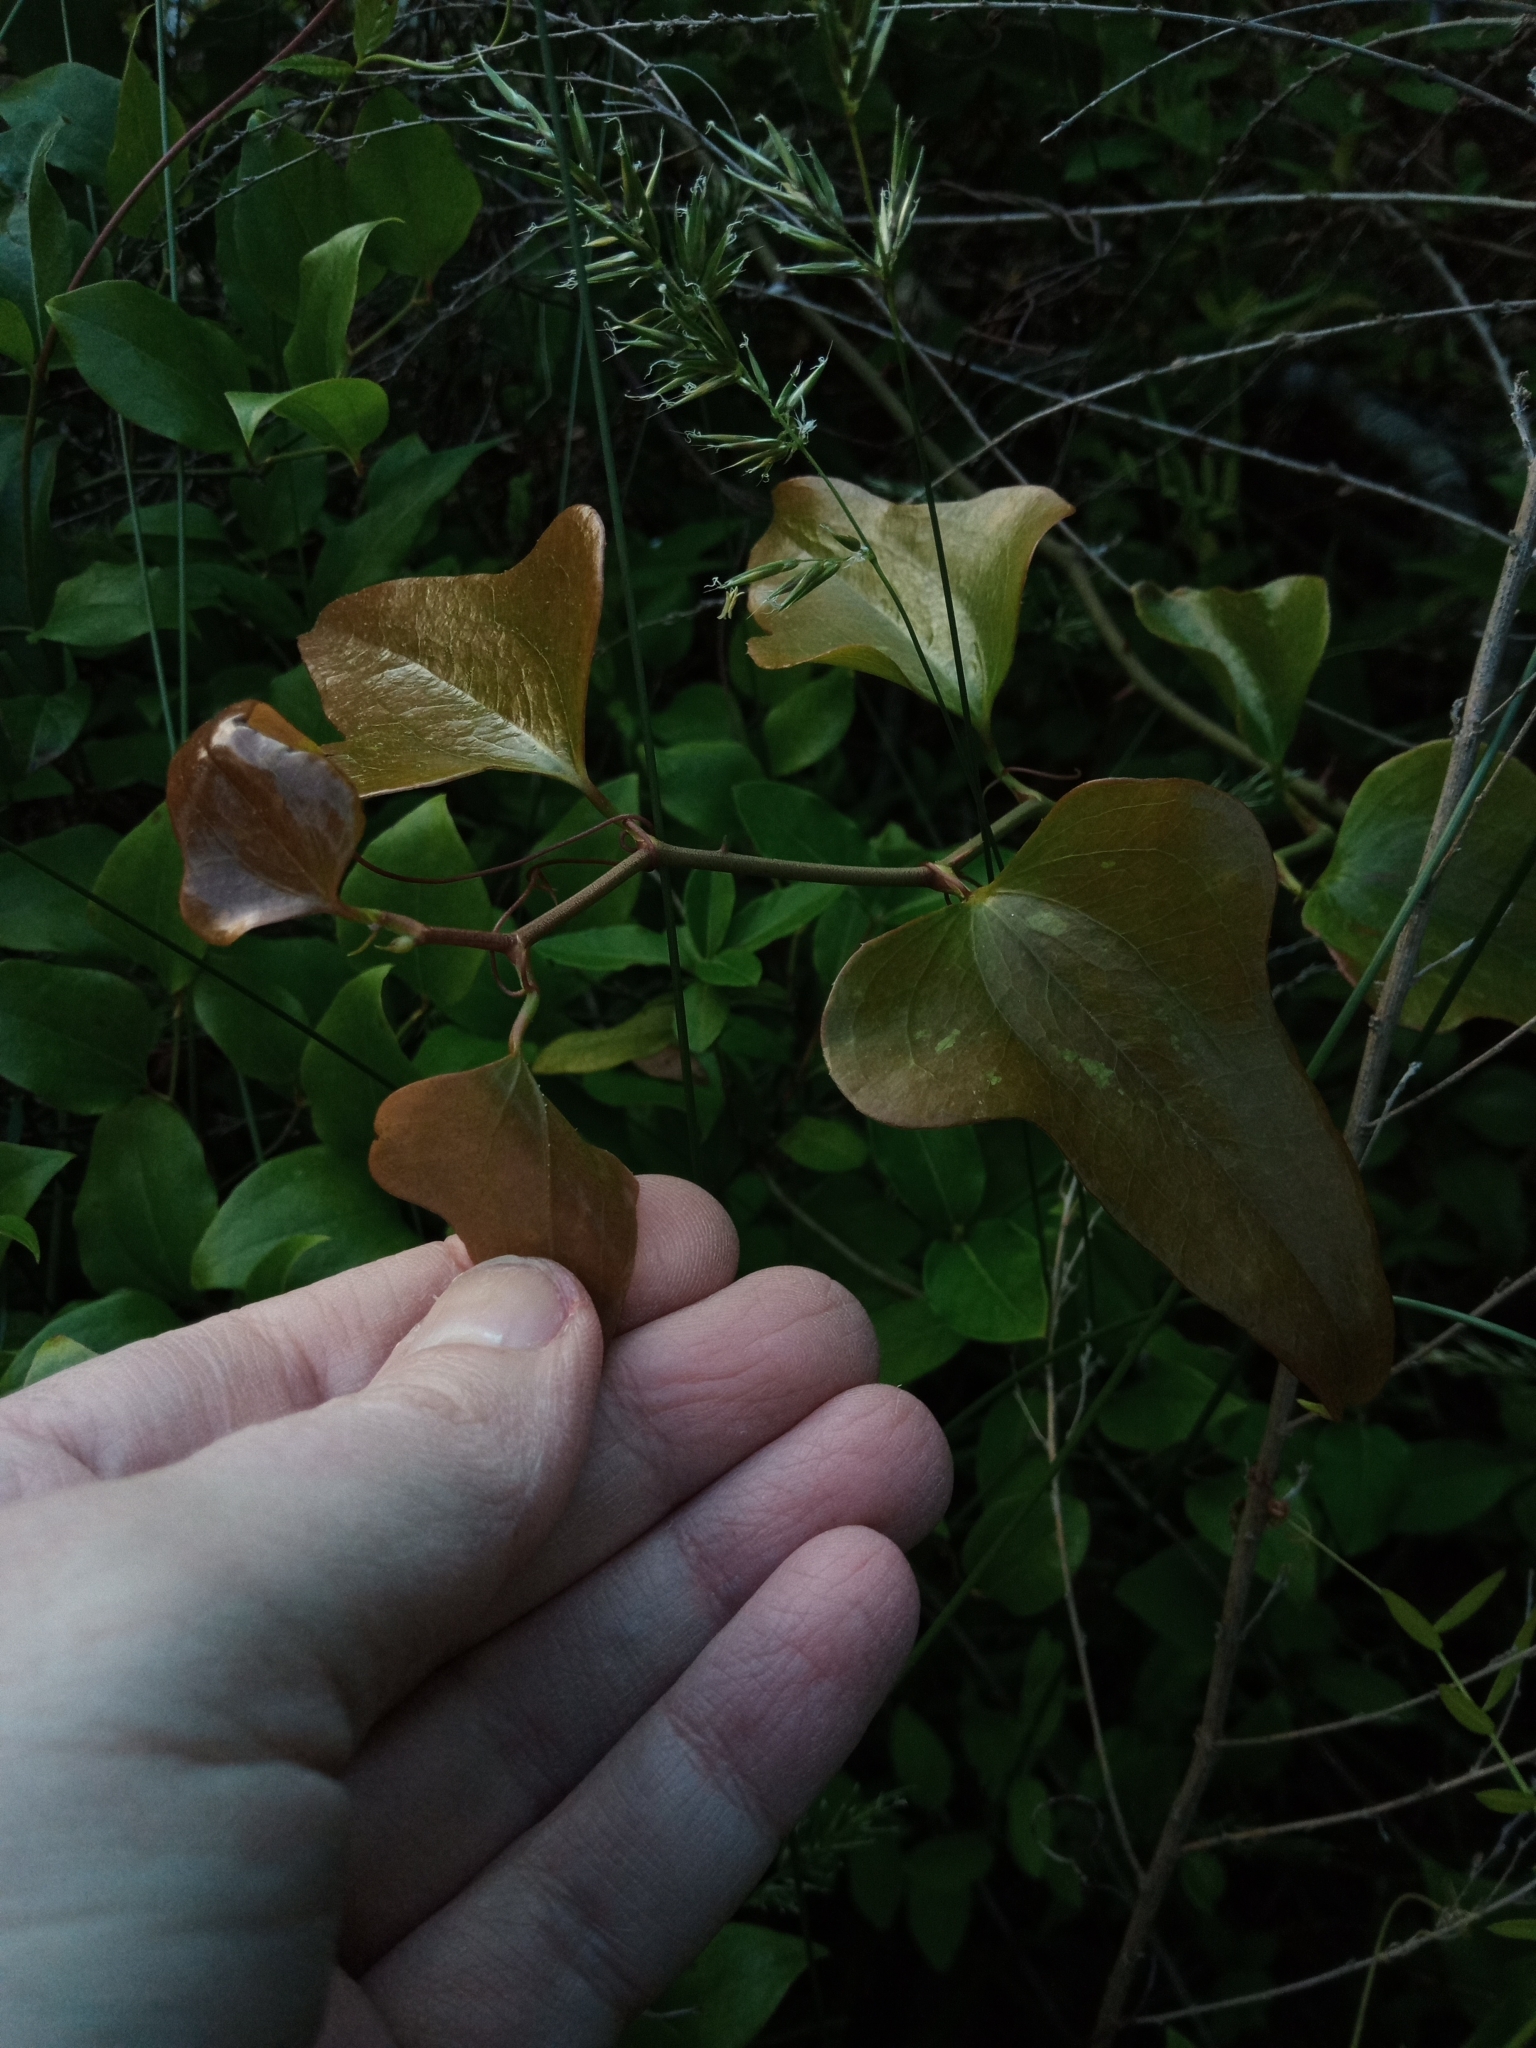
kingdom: Plantae
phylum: Tracheophyta
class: Liliopsida
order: Liliales
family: Smilacaceae
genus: Smilax
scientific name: Smilax bona-nox
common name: Catbrier
